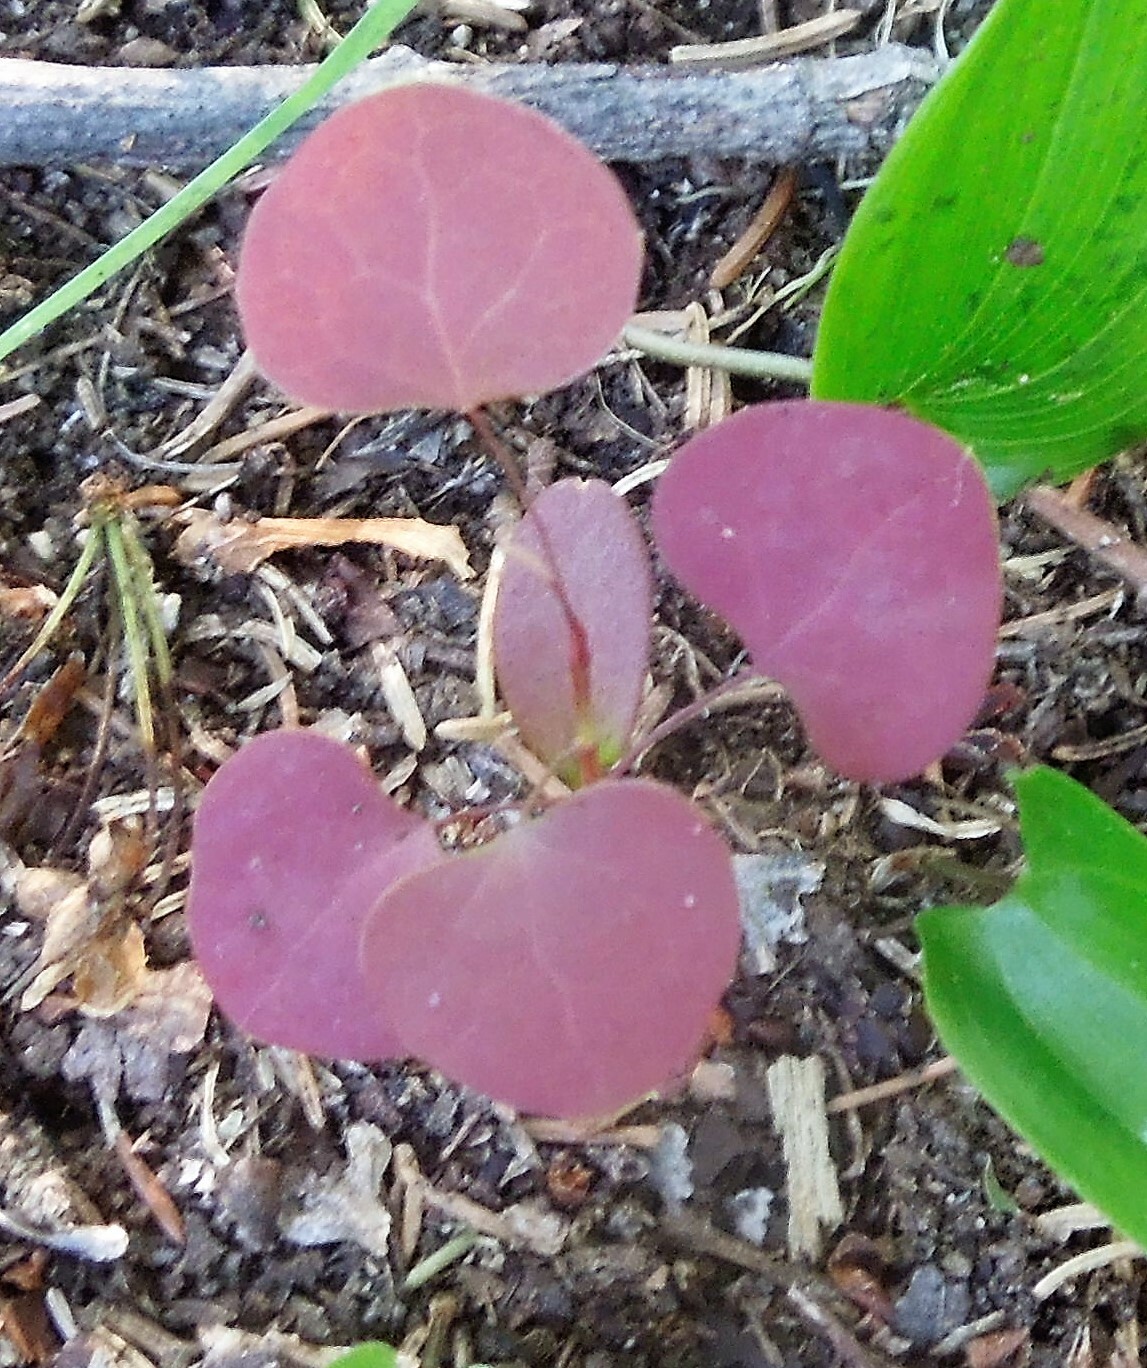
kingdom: Plantae
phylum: Tracheophyta
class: Magnoliopsida
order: Ranunculales
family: Berberidaceae
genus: Berberis
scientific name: Berberis thunbergii
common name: Japanese barberry
